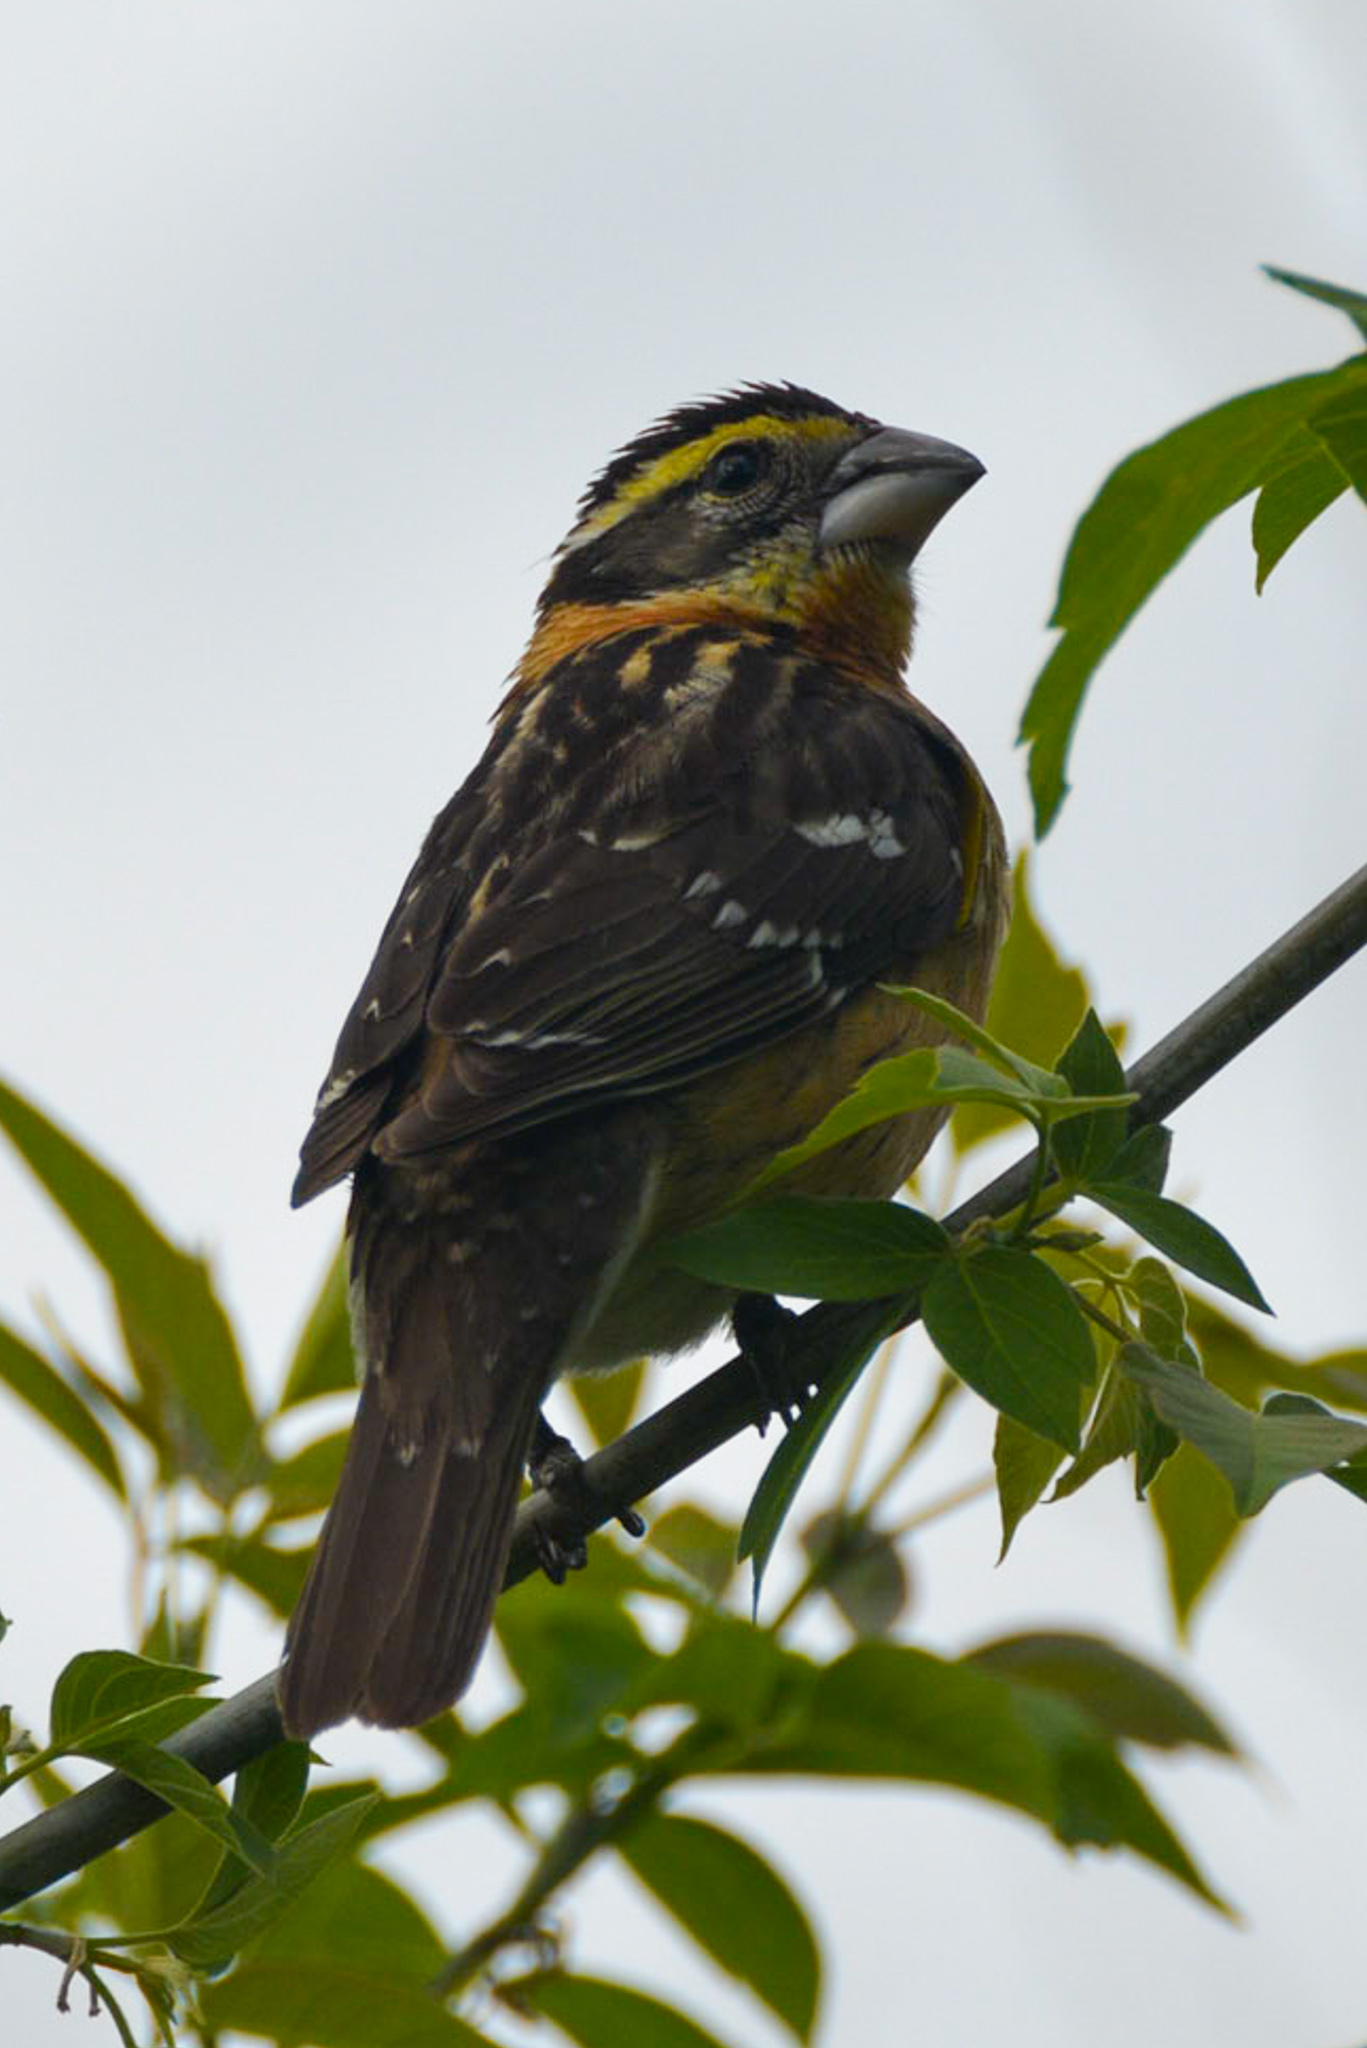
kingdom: Animalia
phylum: Chordata
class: Aves
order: Passeriformes
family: Cardinalidae
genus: Pheucticus
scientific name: Pheucticus melanocephalus
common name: Black-headed grosbeak
